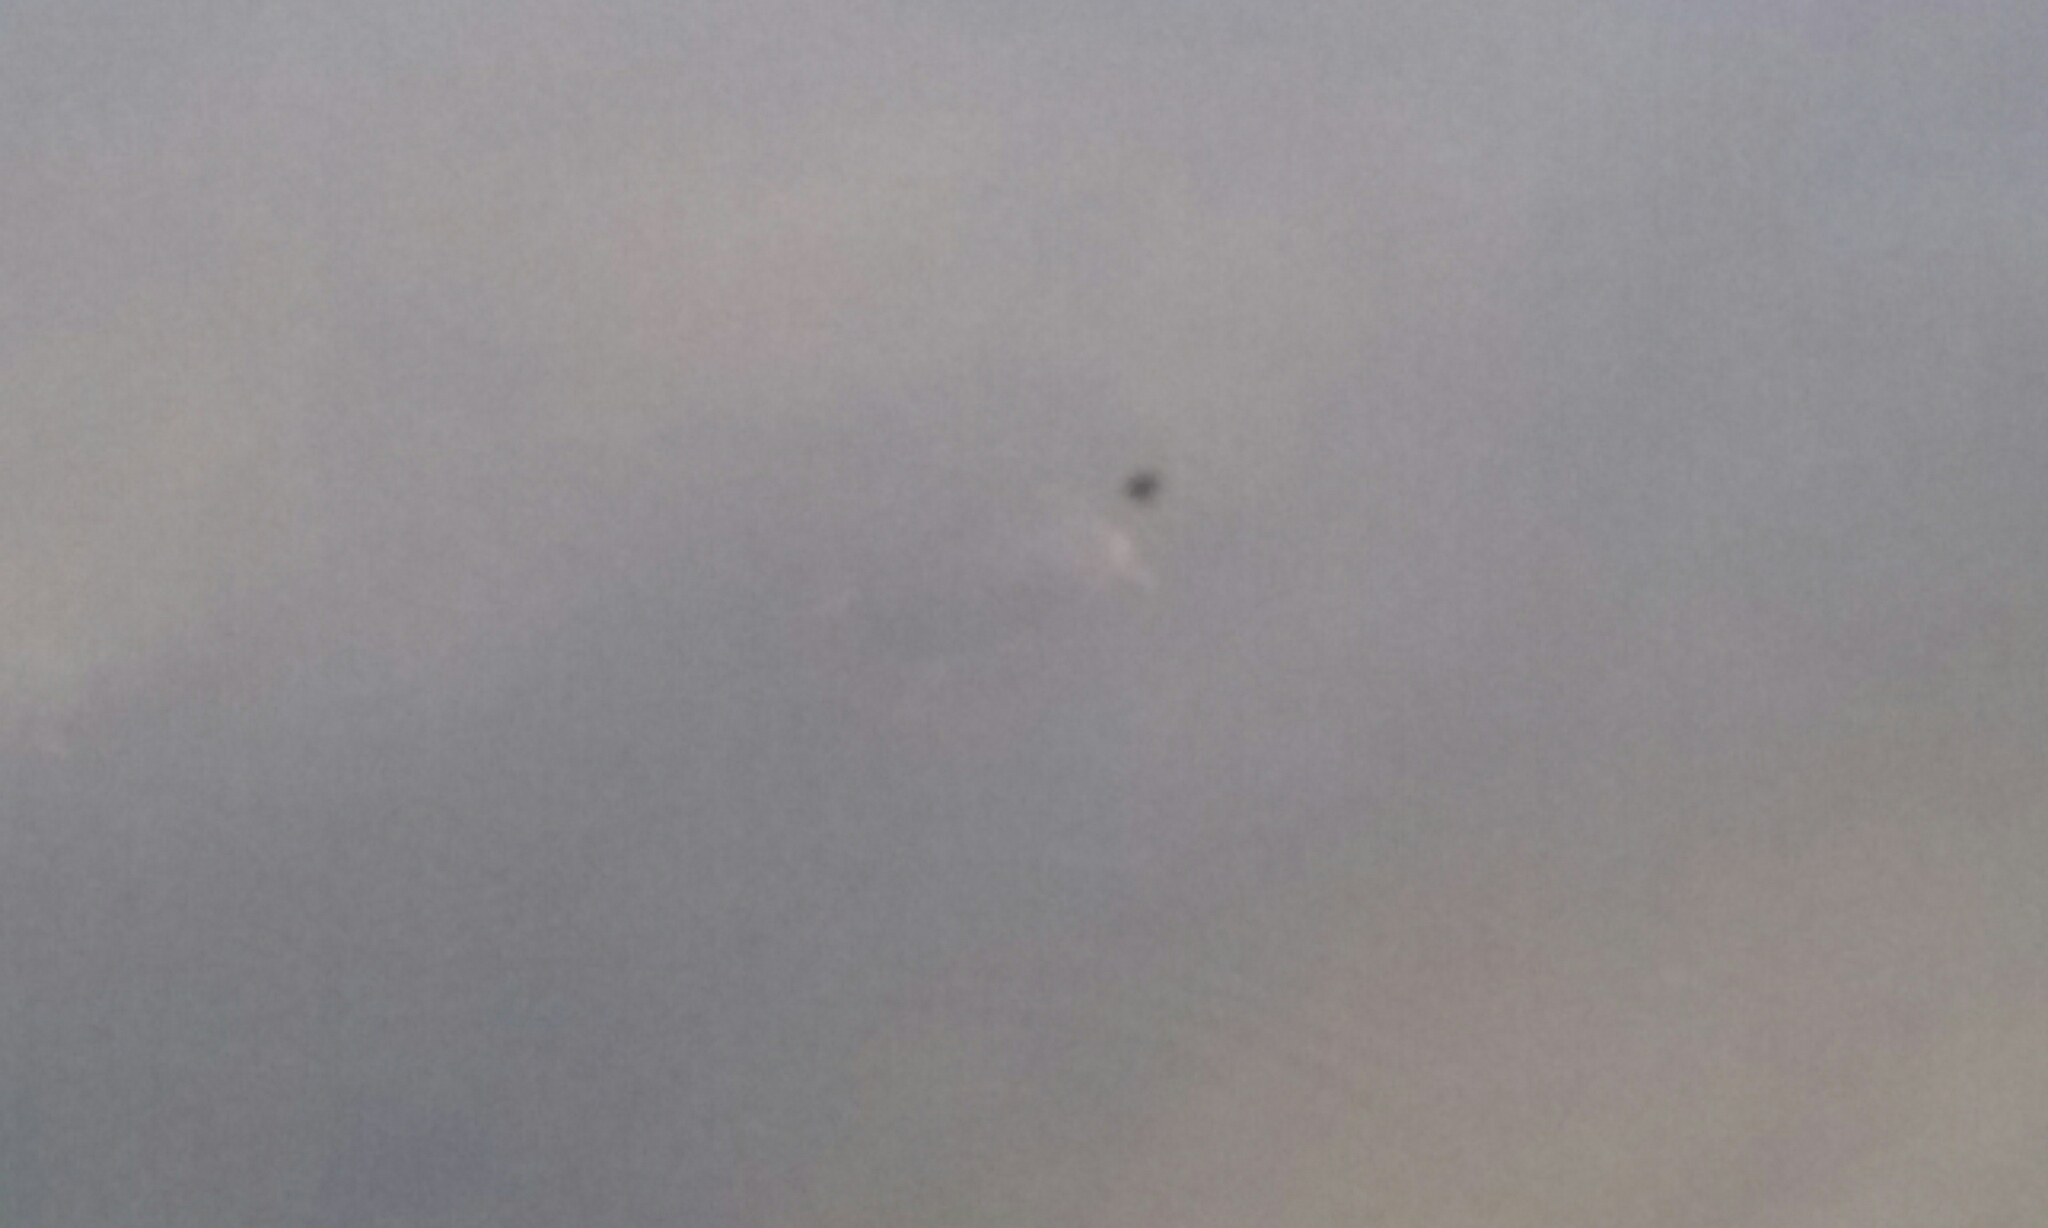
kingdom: Animalia
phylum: Chordata
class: Testudines
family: Emydidae
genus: Chrysemys
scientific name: Chrysemys picta
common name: Painted turtle
